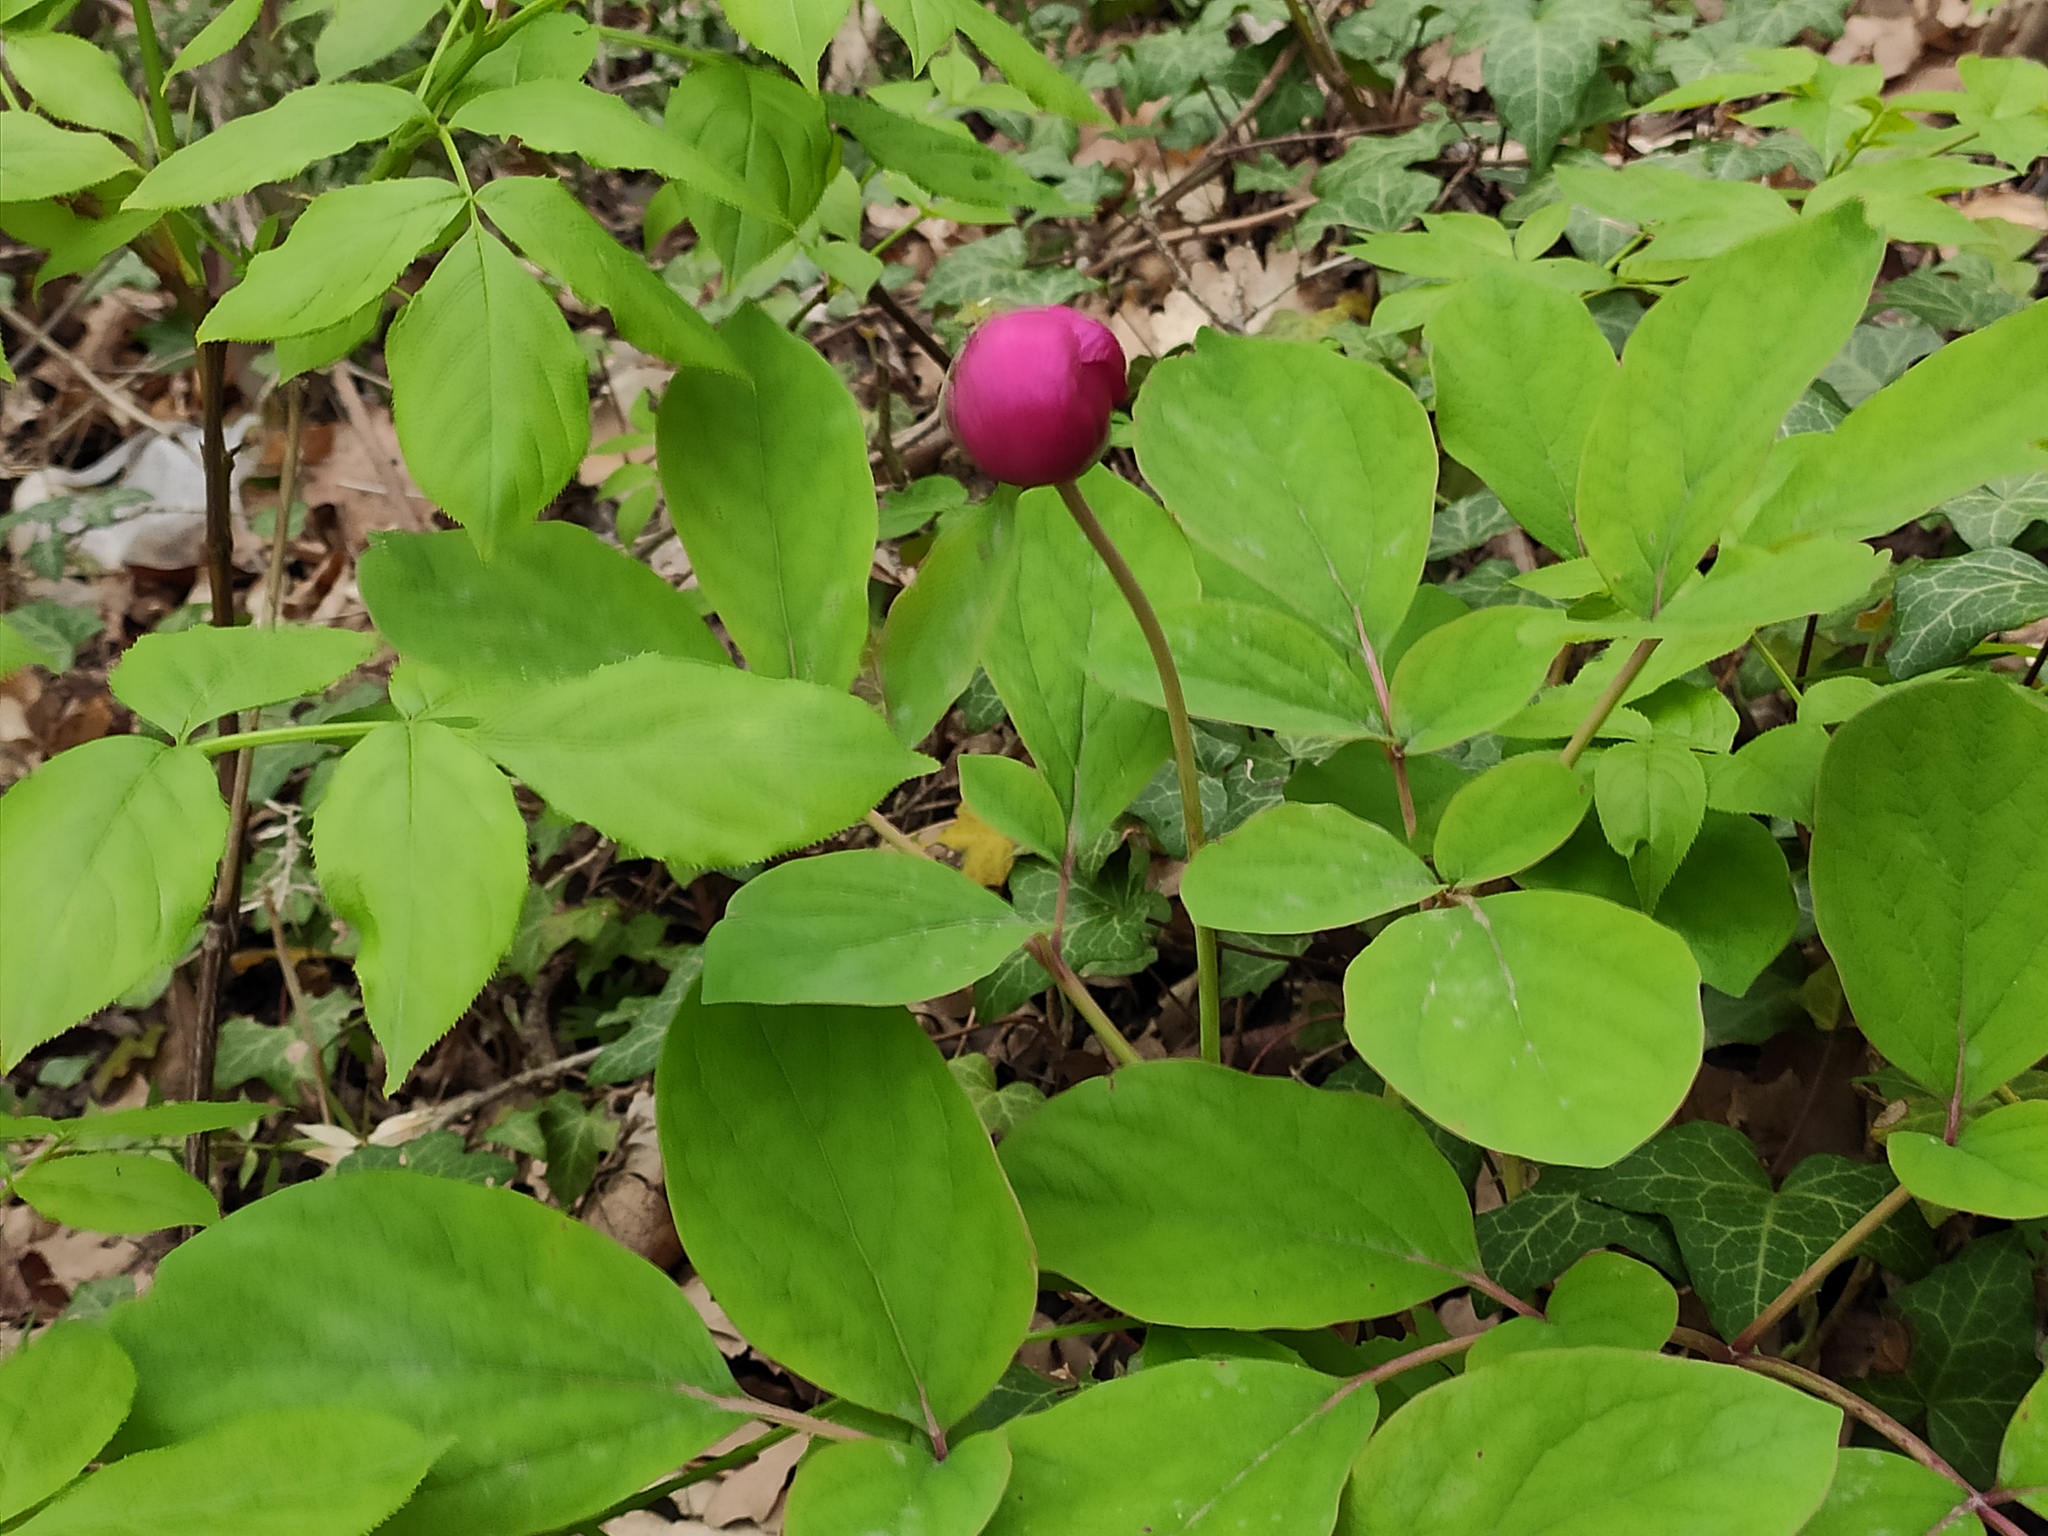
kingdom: Plantae
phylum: Tracheophyta
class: Magnoliopsida
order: Saxifragales
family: Paeoniaceae
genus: Paeonia
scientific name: Paeonia caucasica
